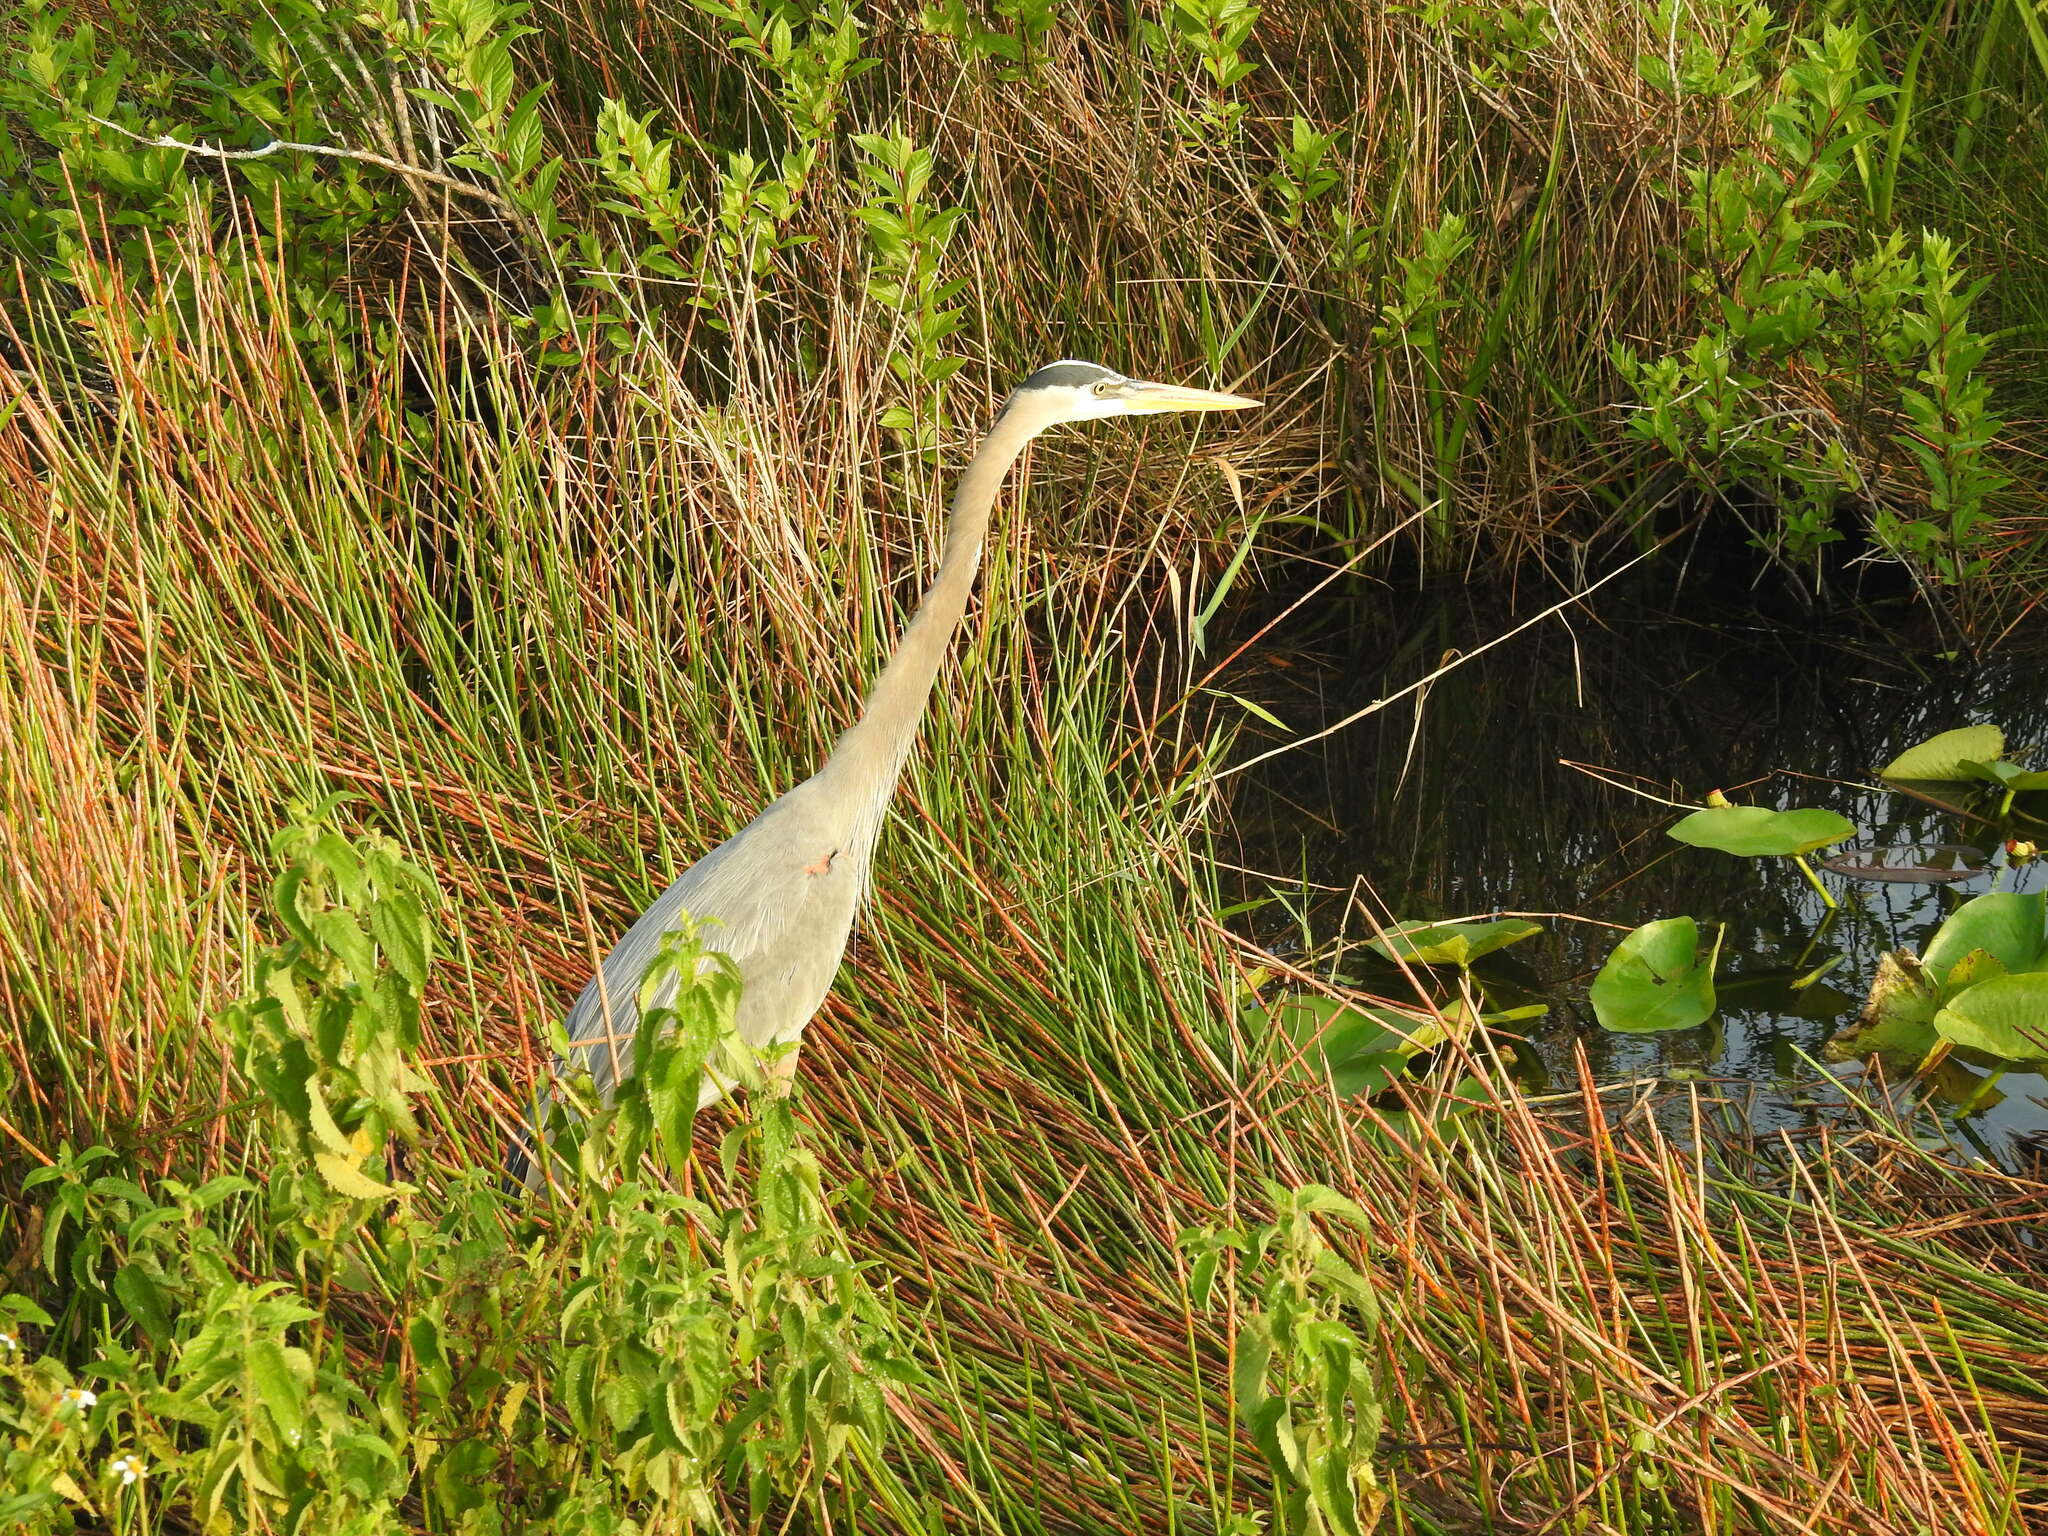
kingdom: Animalia
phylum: Chordata
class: Aves
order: Pelecaniformes
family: Ardeidae
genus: Ardea
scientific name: Ardea herodias
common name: Great blue heron
